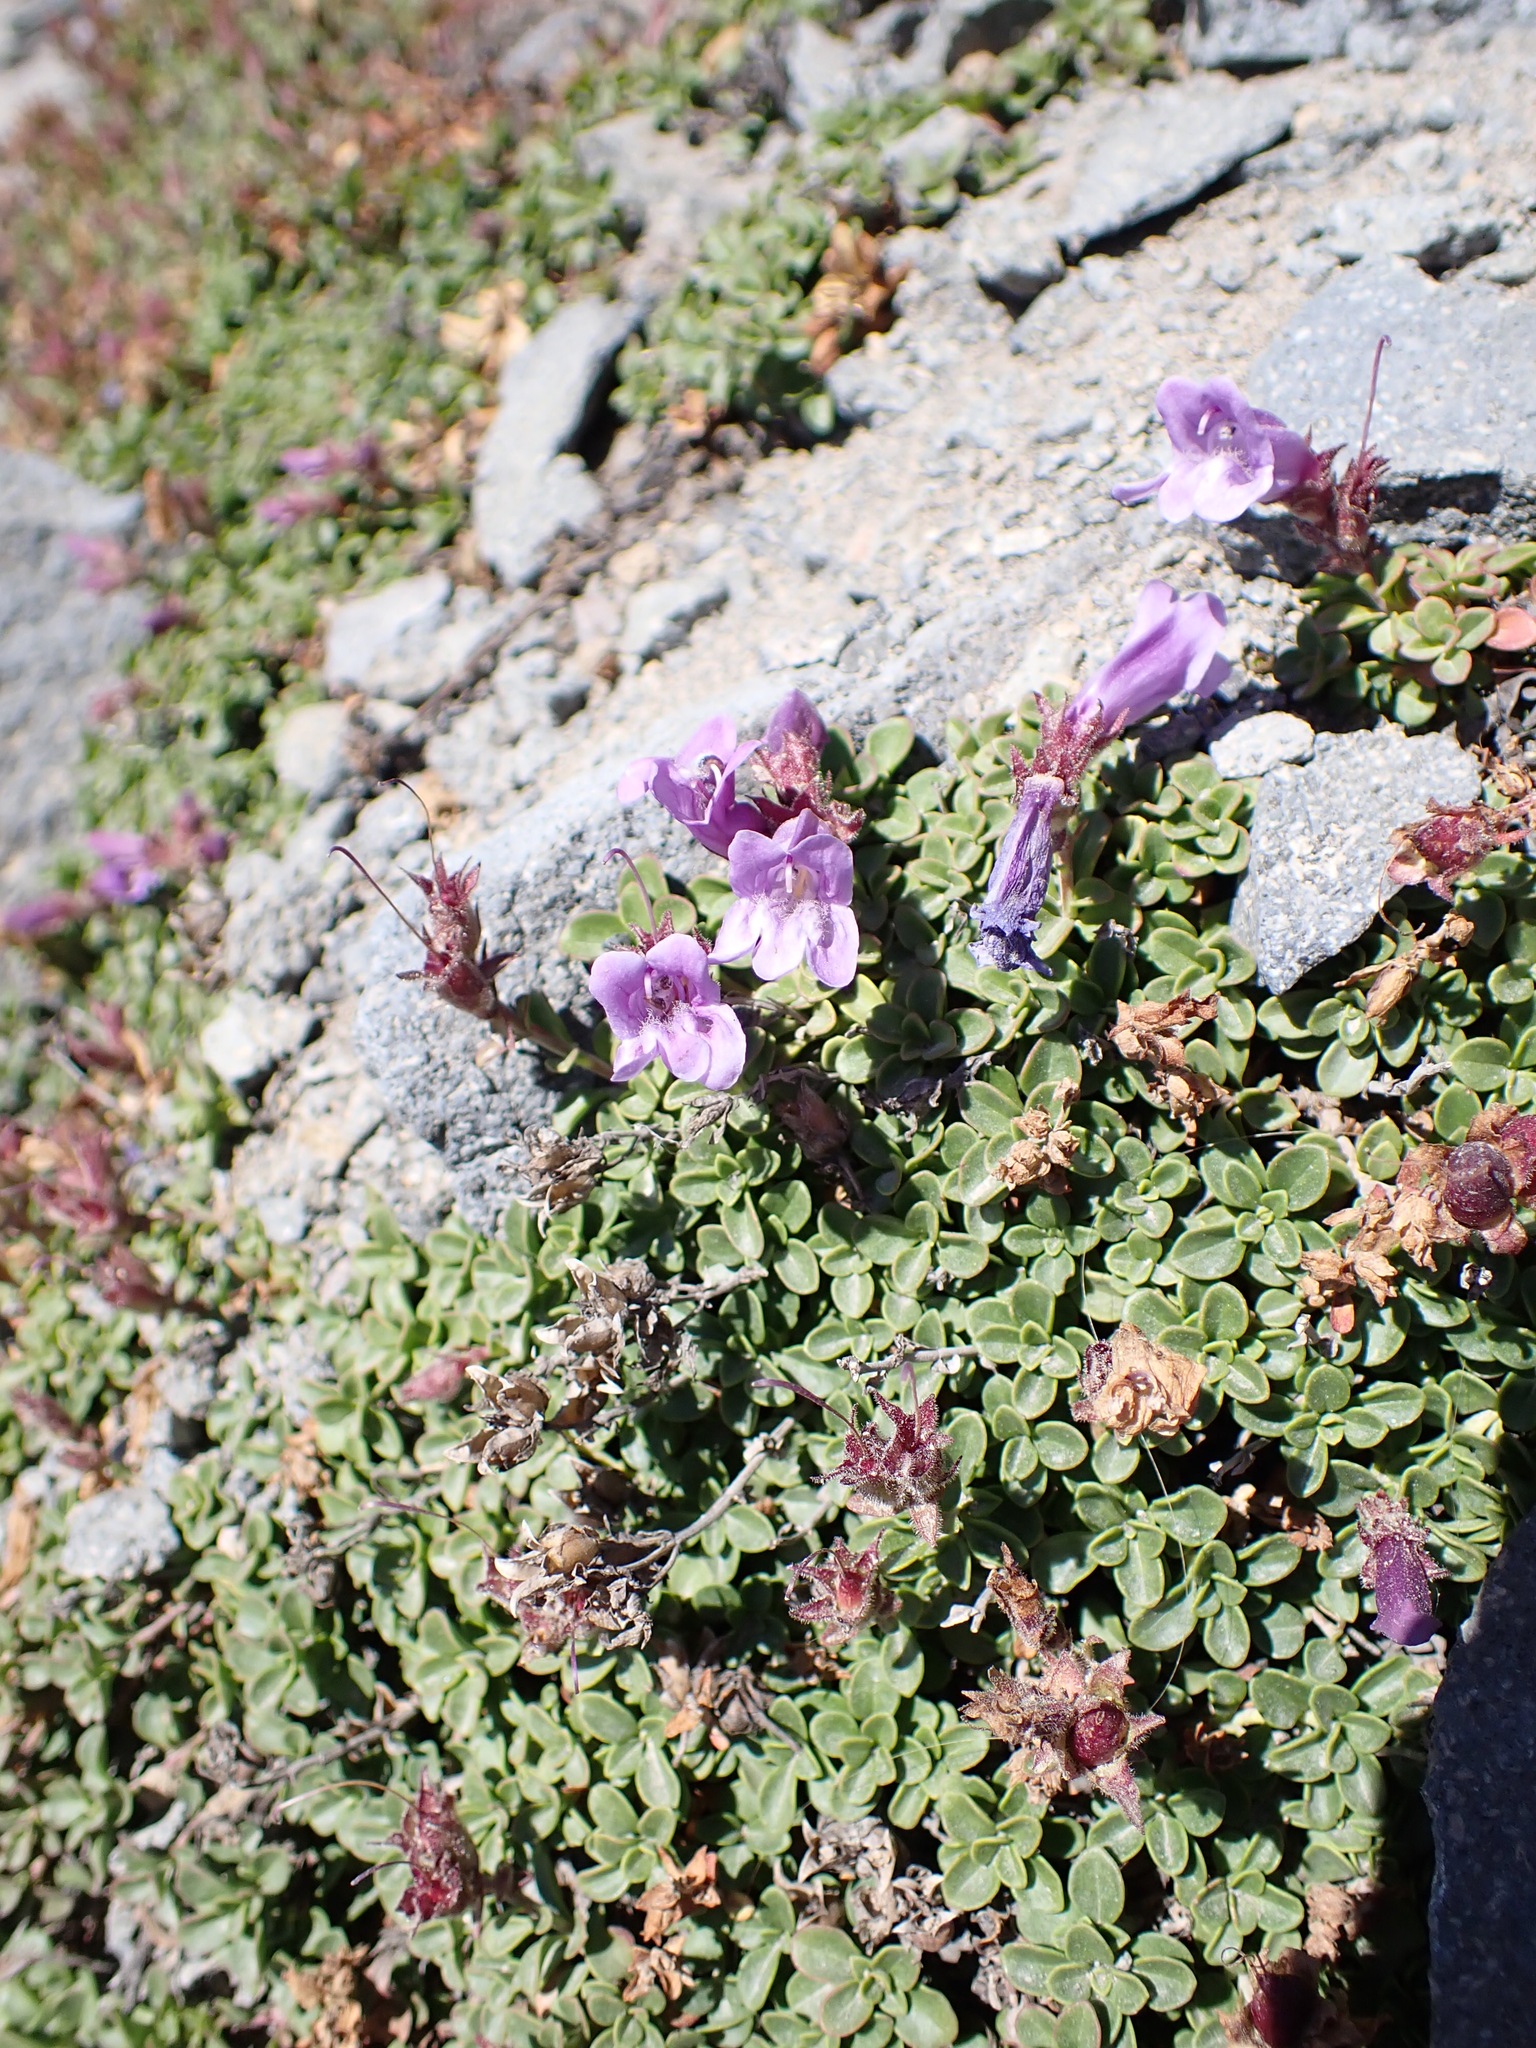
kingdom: Plantae
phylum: Tracheophyta
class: Magnoliopsida
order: Lamiales
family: Plantaginaceae
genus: Penstemon
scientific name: Penstemon davidsonii
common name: Davidson's penstemon
